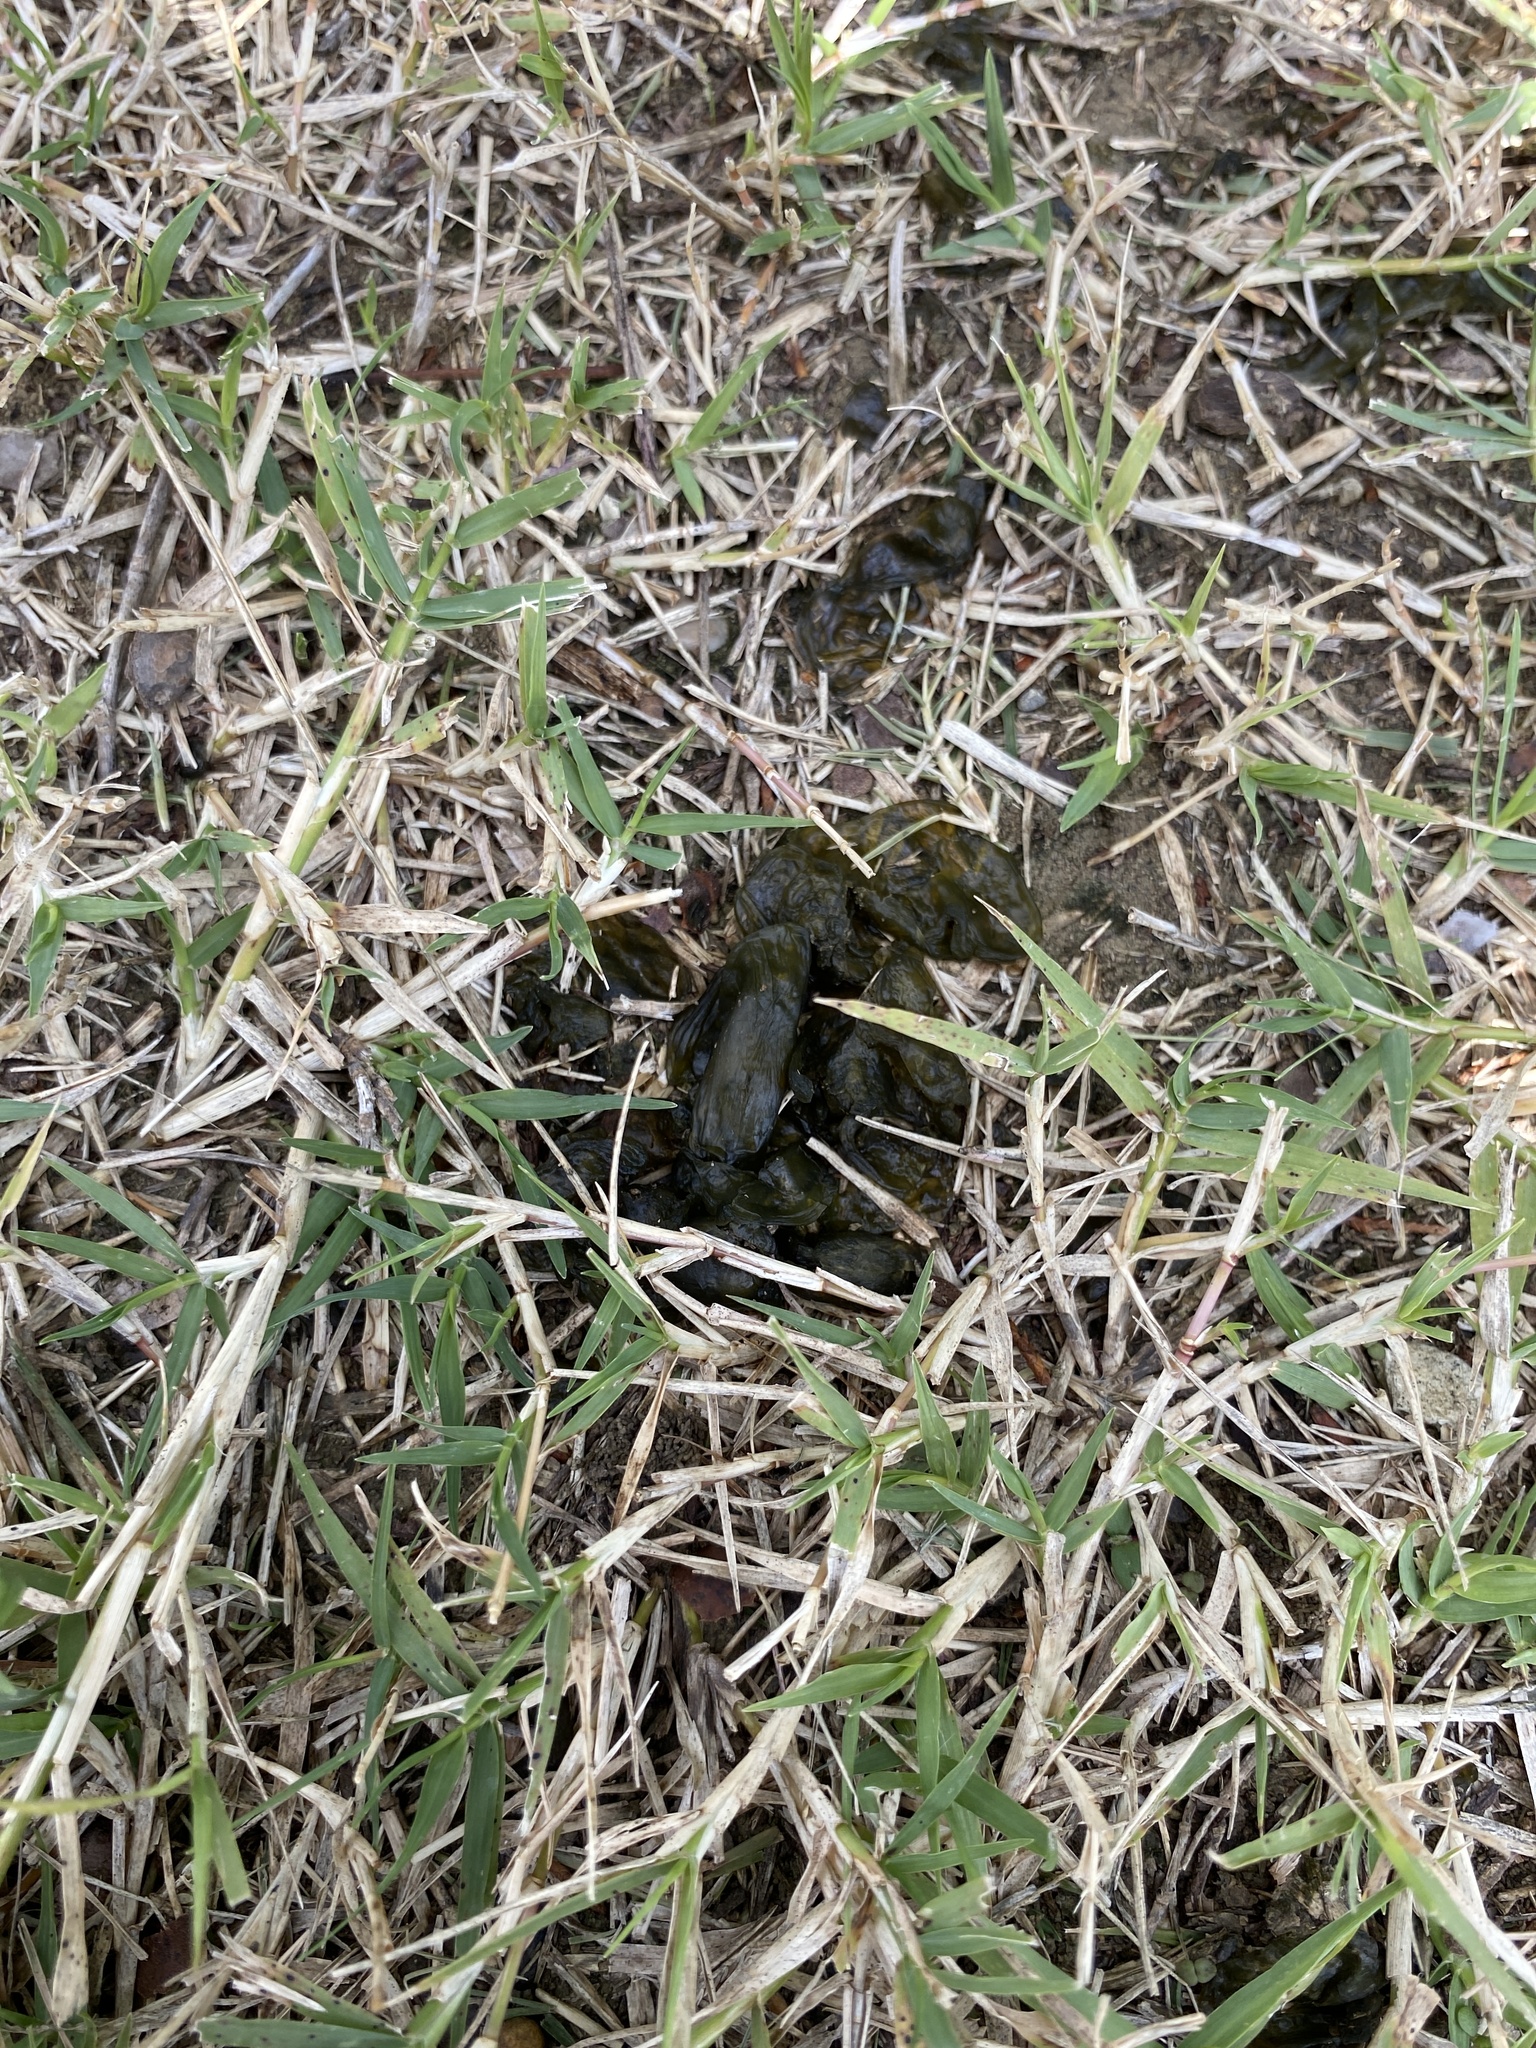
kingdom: Bacteria
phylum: Cyanobacteria
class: Cyanobacteriia
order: Cyanobacteriales
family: Nostocaceae
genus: Nostoc
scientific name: Nostoc commune
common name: Star jelly
